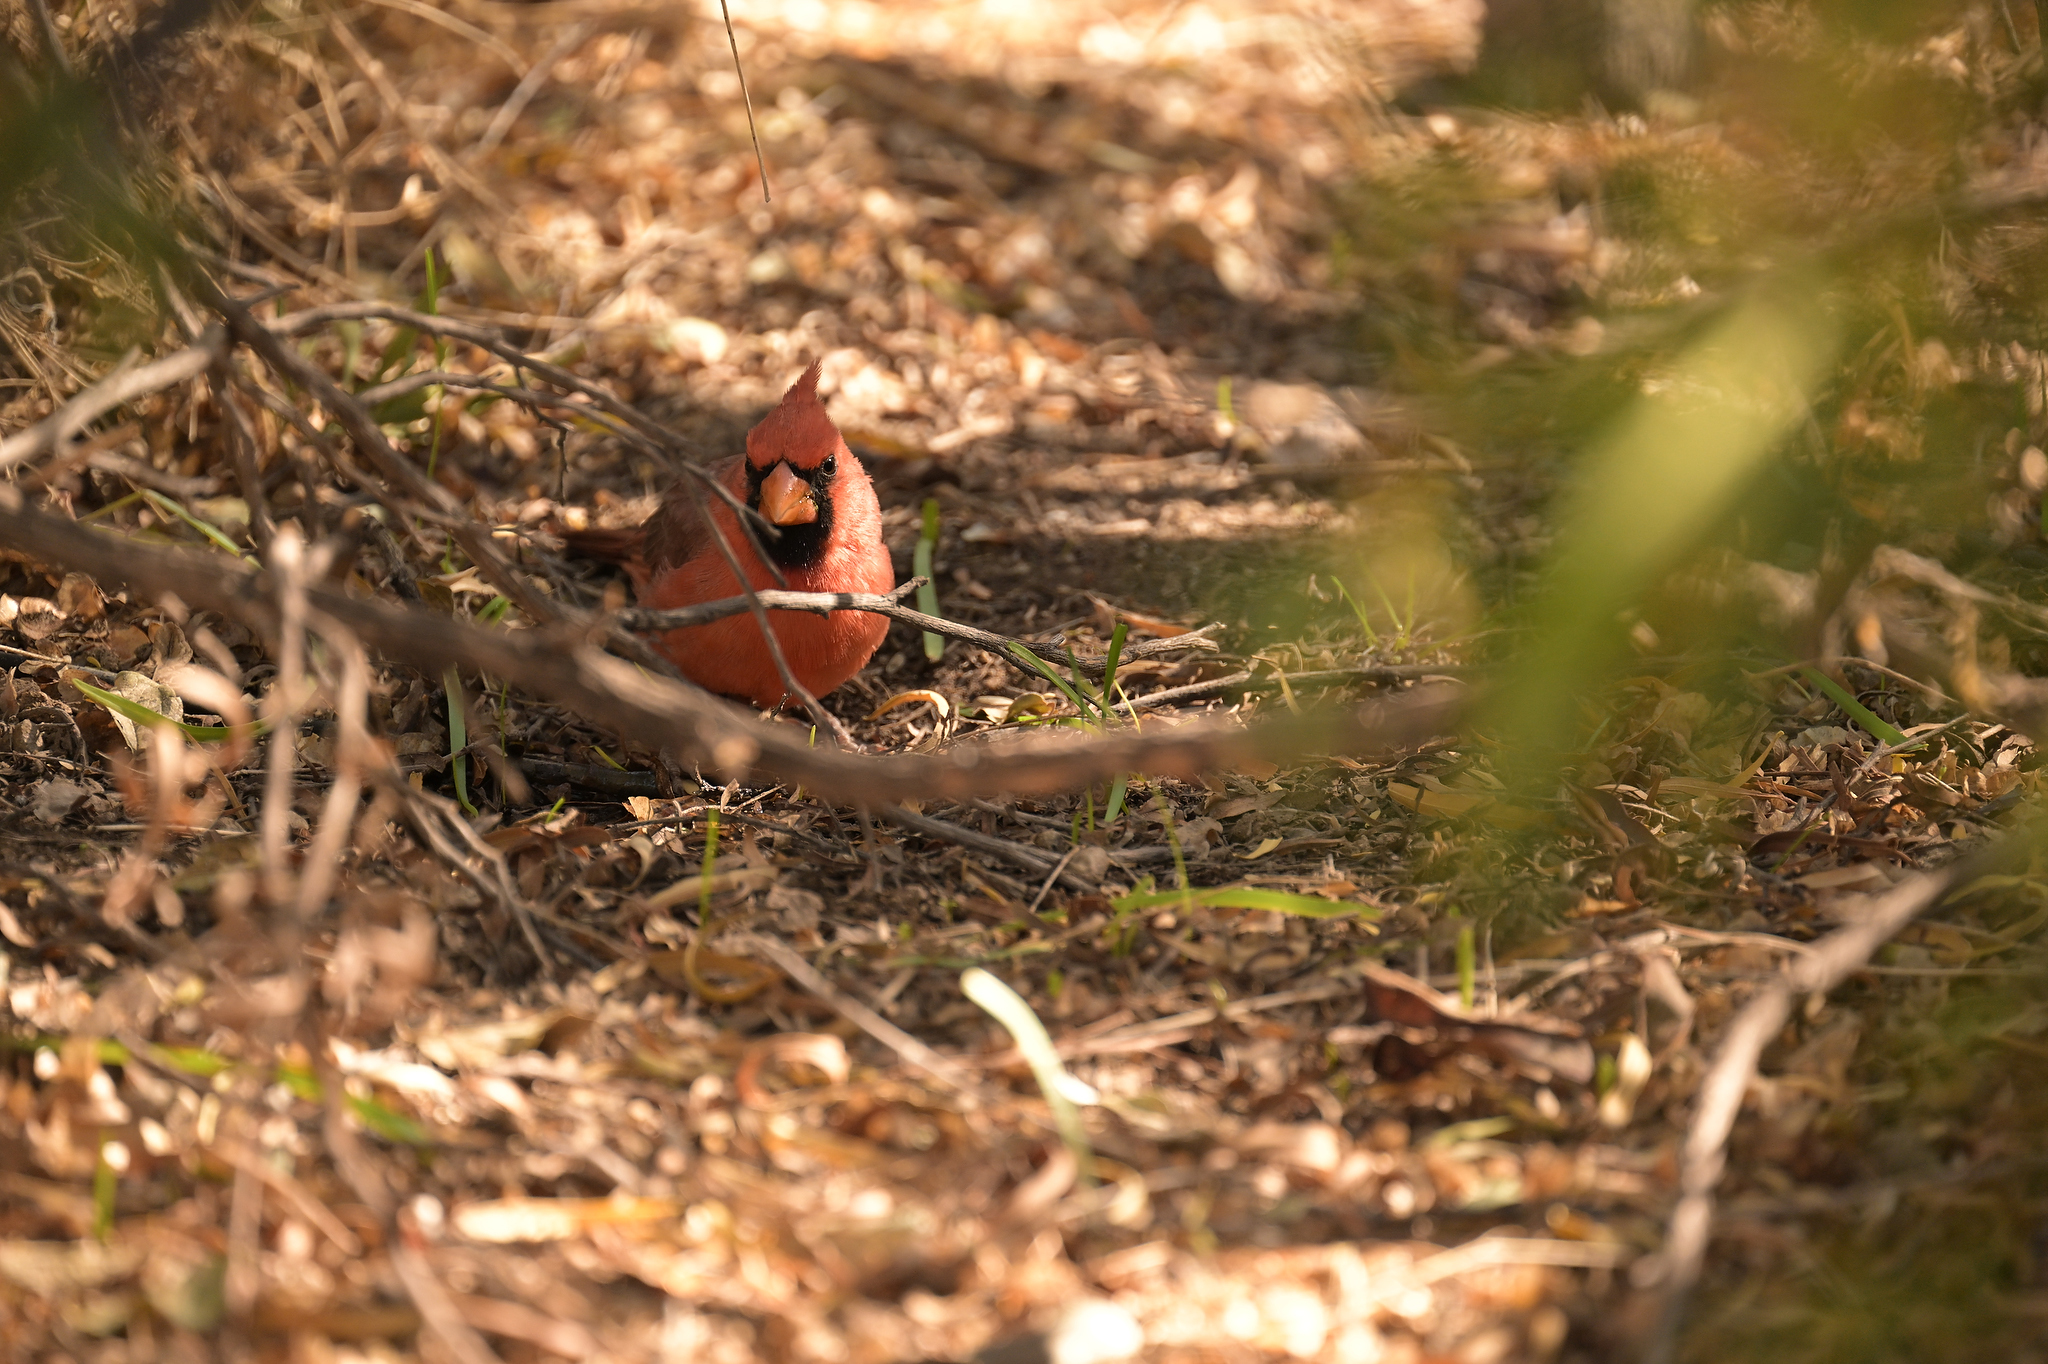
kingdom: Animalia
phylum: Chordata
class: Aves
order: Passeriformes
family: Cardinalidae
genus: Cardinalis
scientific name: Cardinalis cardinalis
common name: Northern cardinal
